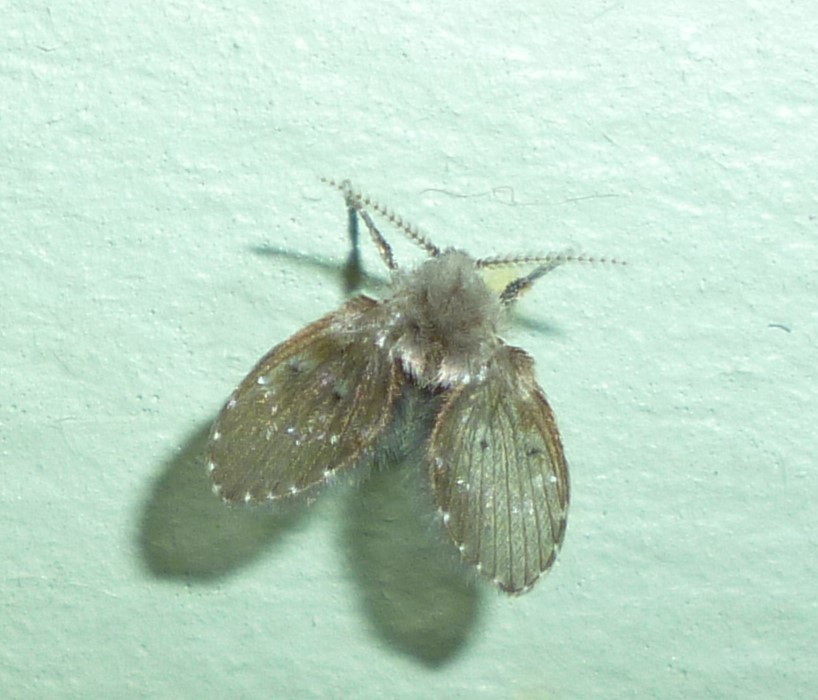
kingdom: Animalia
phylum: Arthropoda
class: Insecta
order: Diptera
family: Psychodidae
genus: Clogmia
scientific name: Clogmia albipunctatus
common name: White-spotted moth fly
